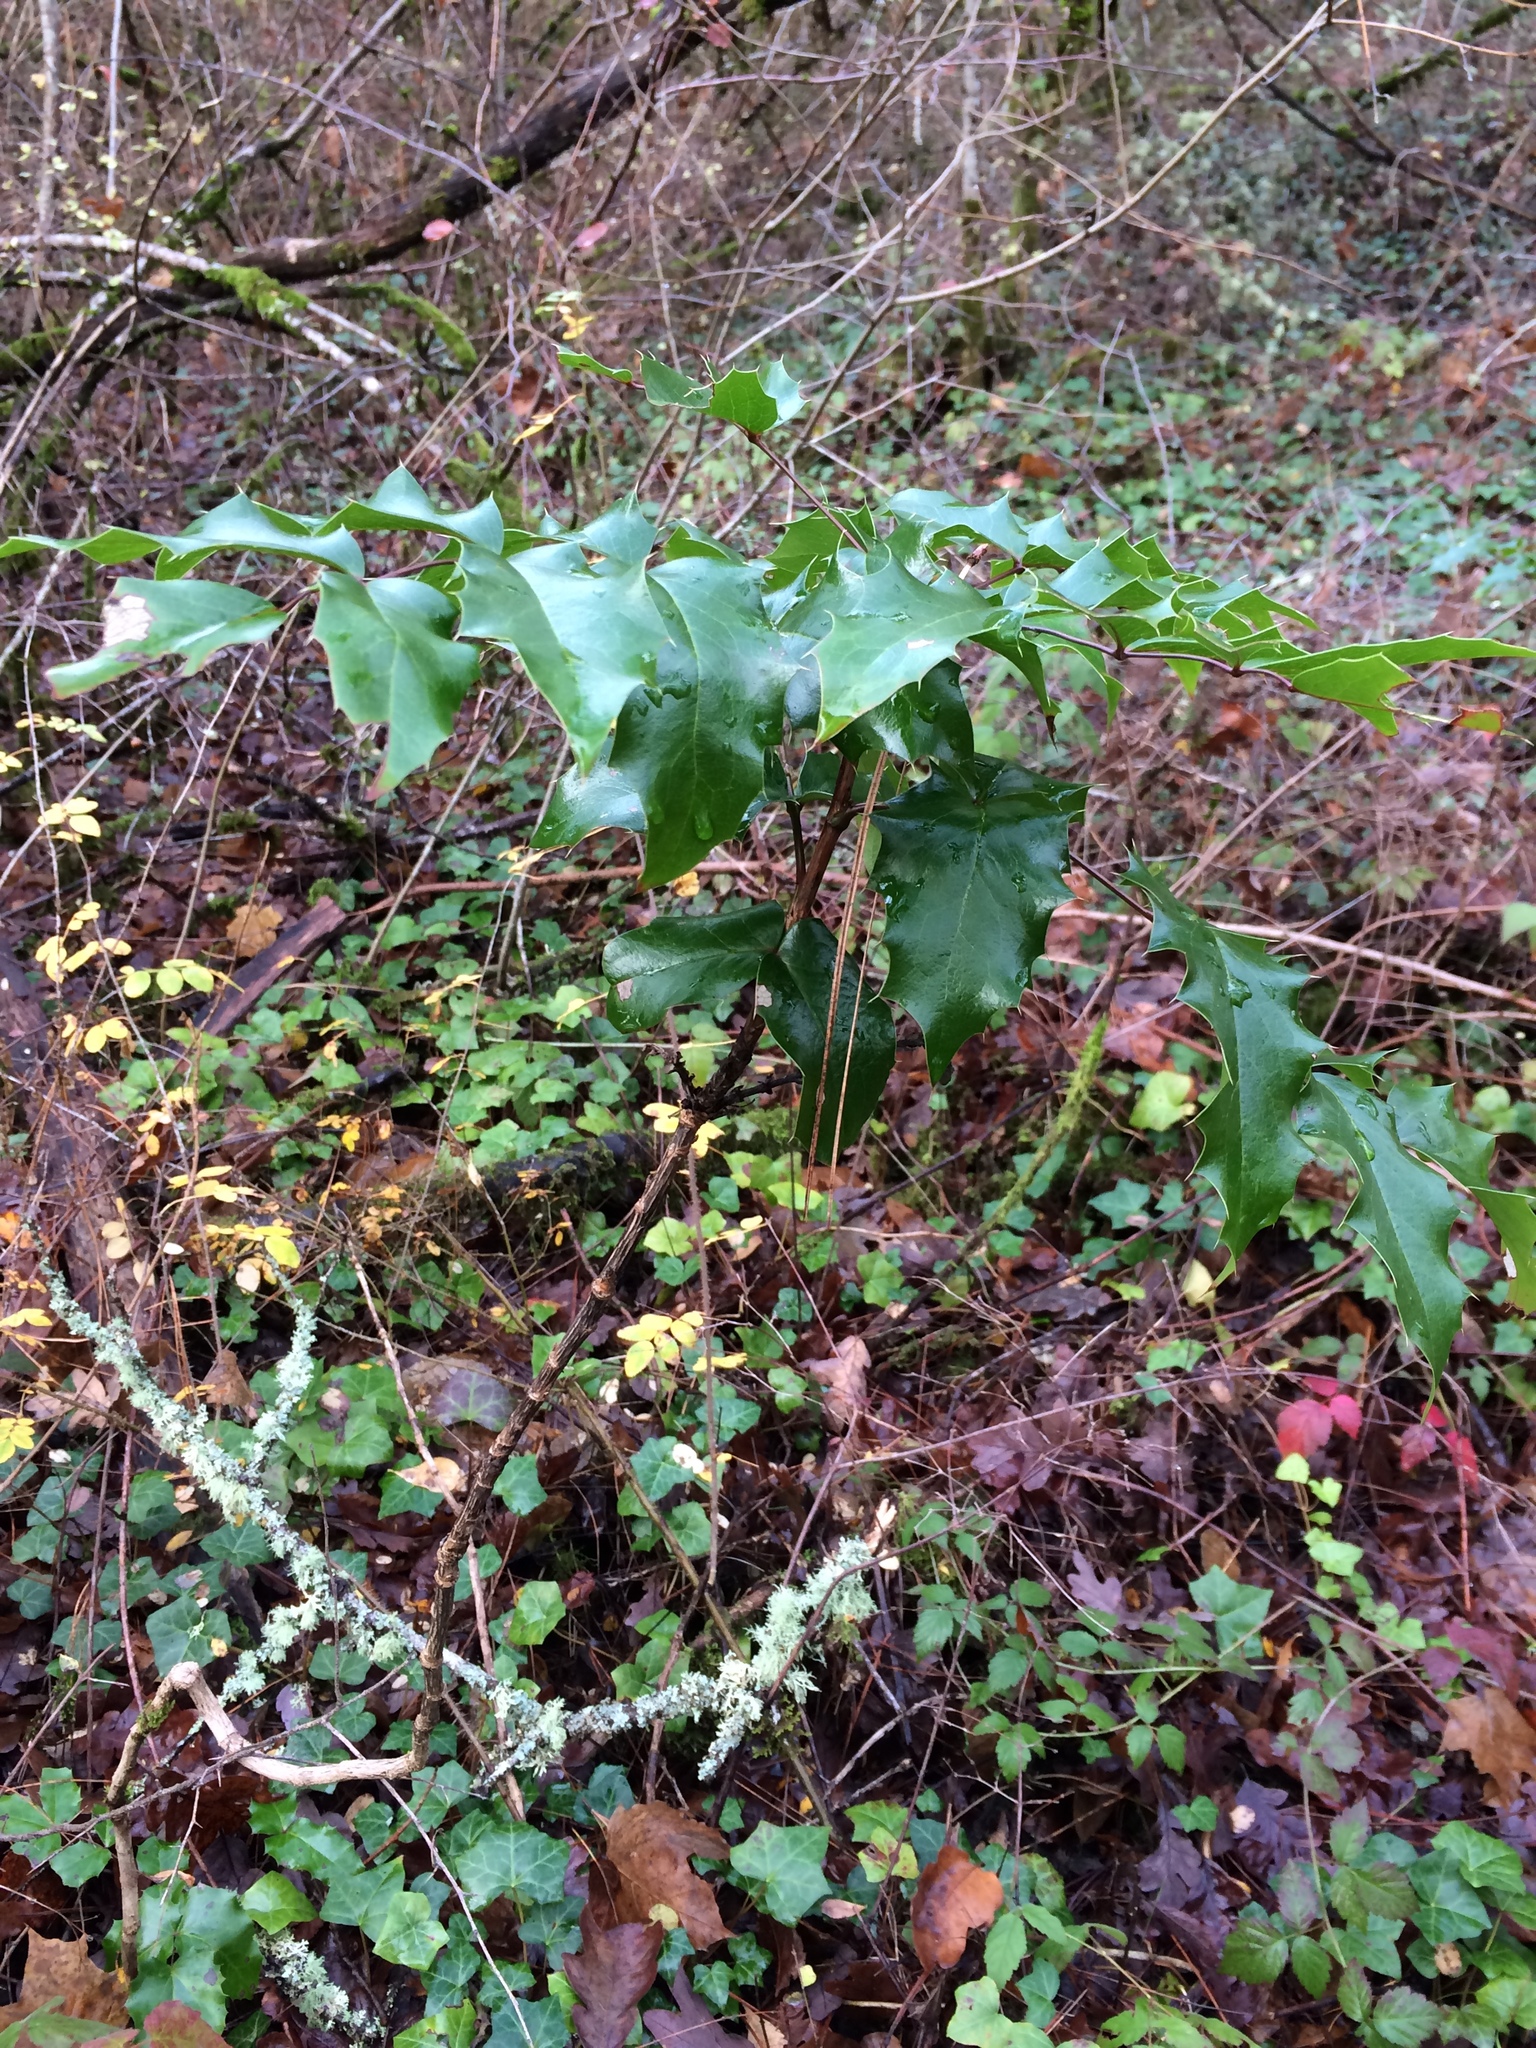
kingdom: Plantae
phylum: Tracheophyta
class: Magnoliopsida
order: Ranunculales
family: Berberidaceae
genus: Mahonia
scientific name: Mahonia aquifolium
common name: Oregon-grape
